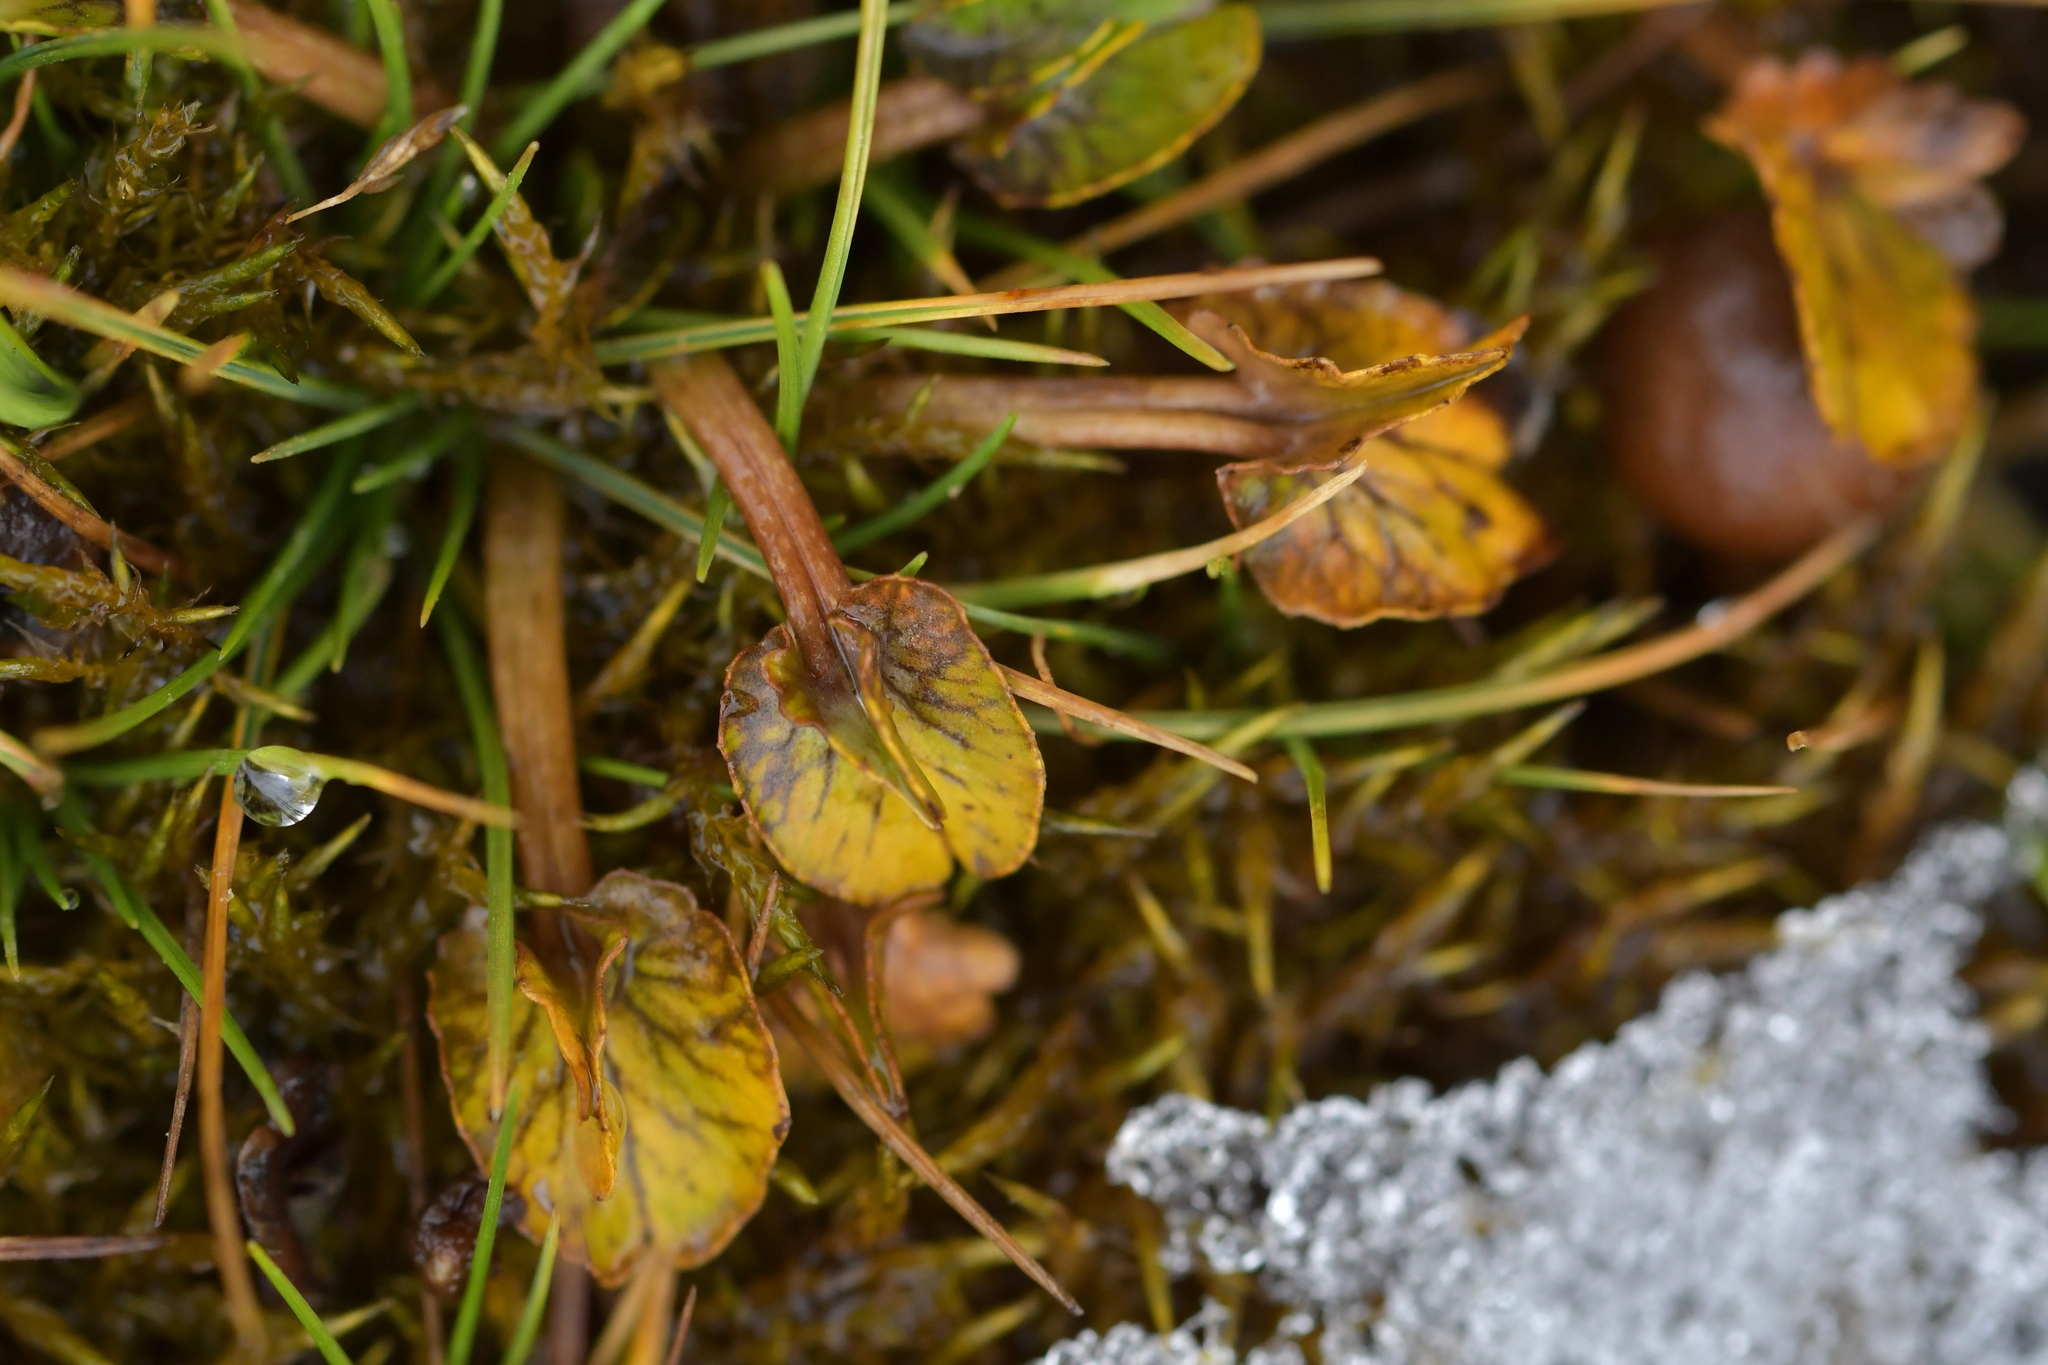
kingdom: Plantae
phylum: Tracheophyta
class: Magnoliopsida
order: Ranunculales
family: Ranunculaceae
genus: Caltha
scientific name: Caltha obtusa
